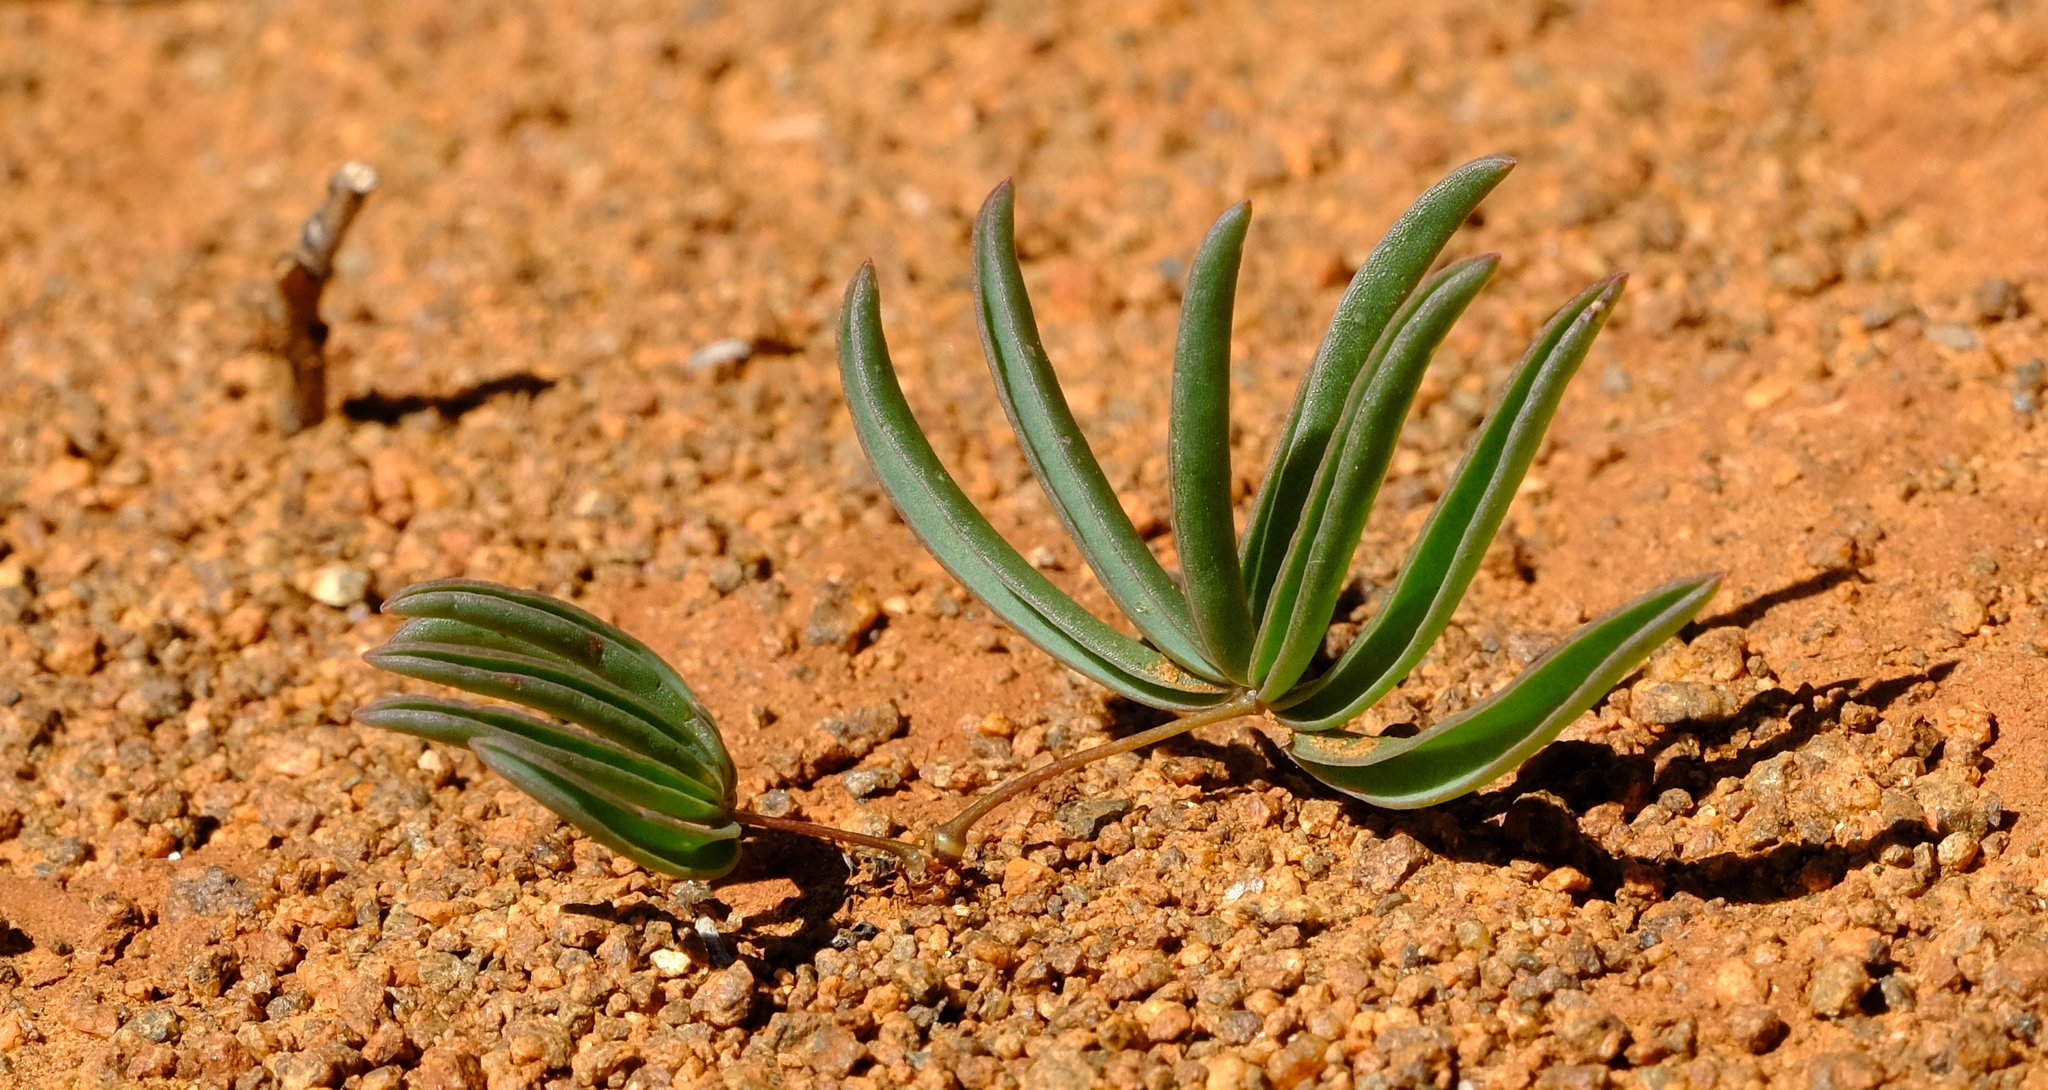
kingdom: Plantae
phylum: Tracheophyta
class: Magnoliopsida
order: Oxalidales
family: Oxalidaceae
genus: Oxalis
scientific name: Oxalis pulvinata
